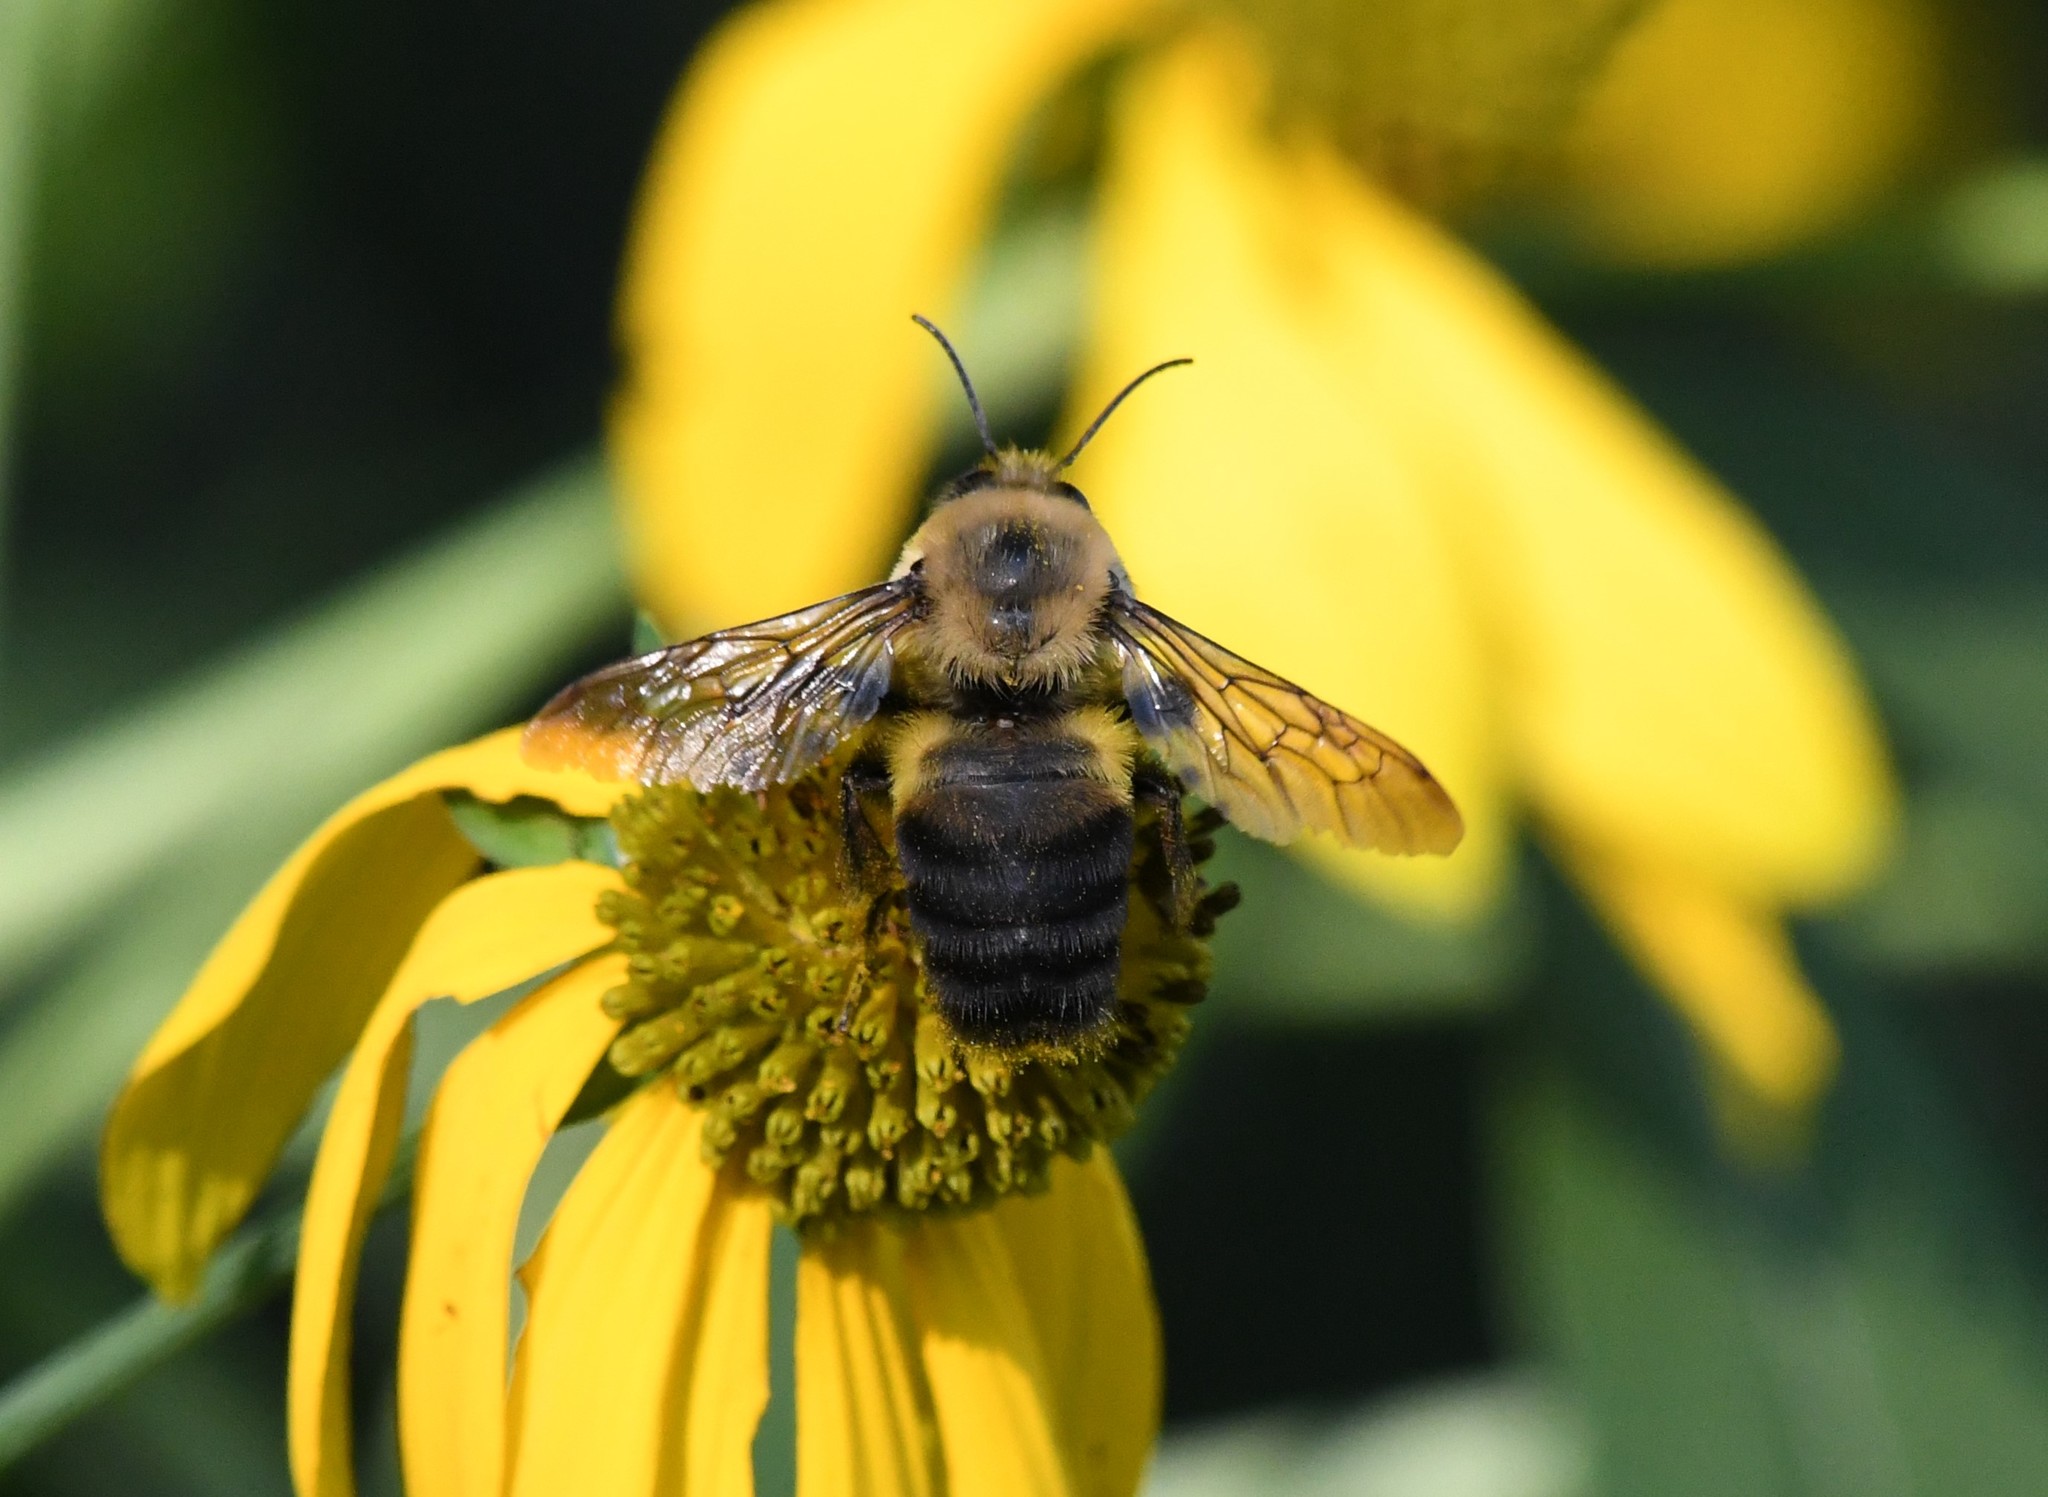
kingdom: Animalia
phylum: Arthropoda
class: Insecta
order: Hymenoptera
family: Apidae
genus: Bombus
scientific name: Bombus griseocollis
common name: Brown-belted bumble bee
